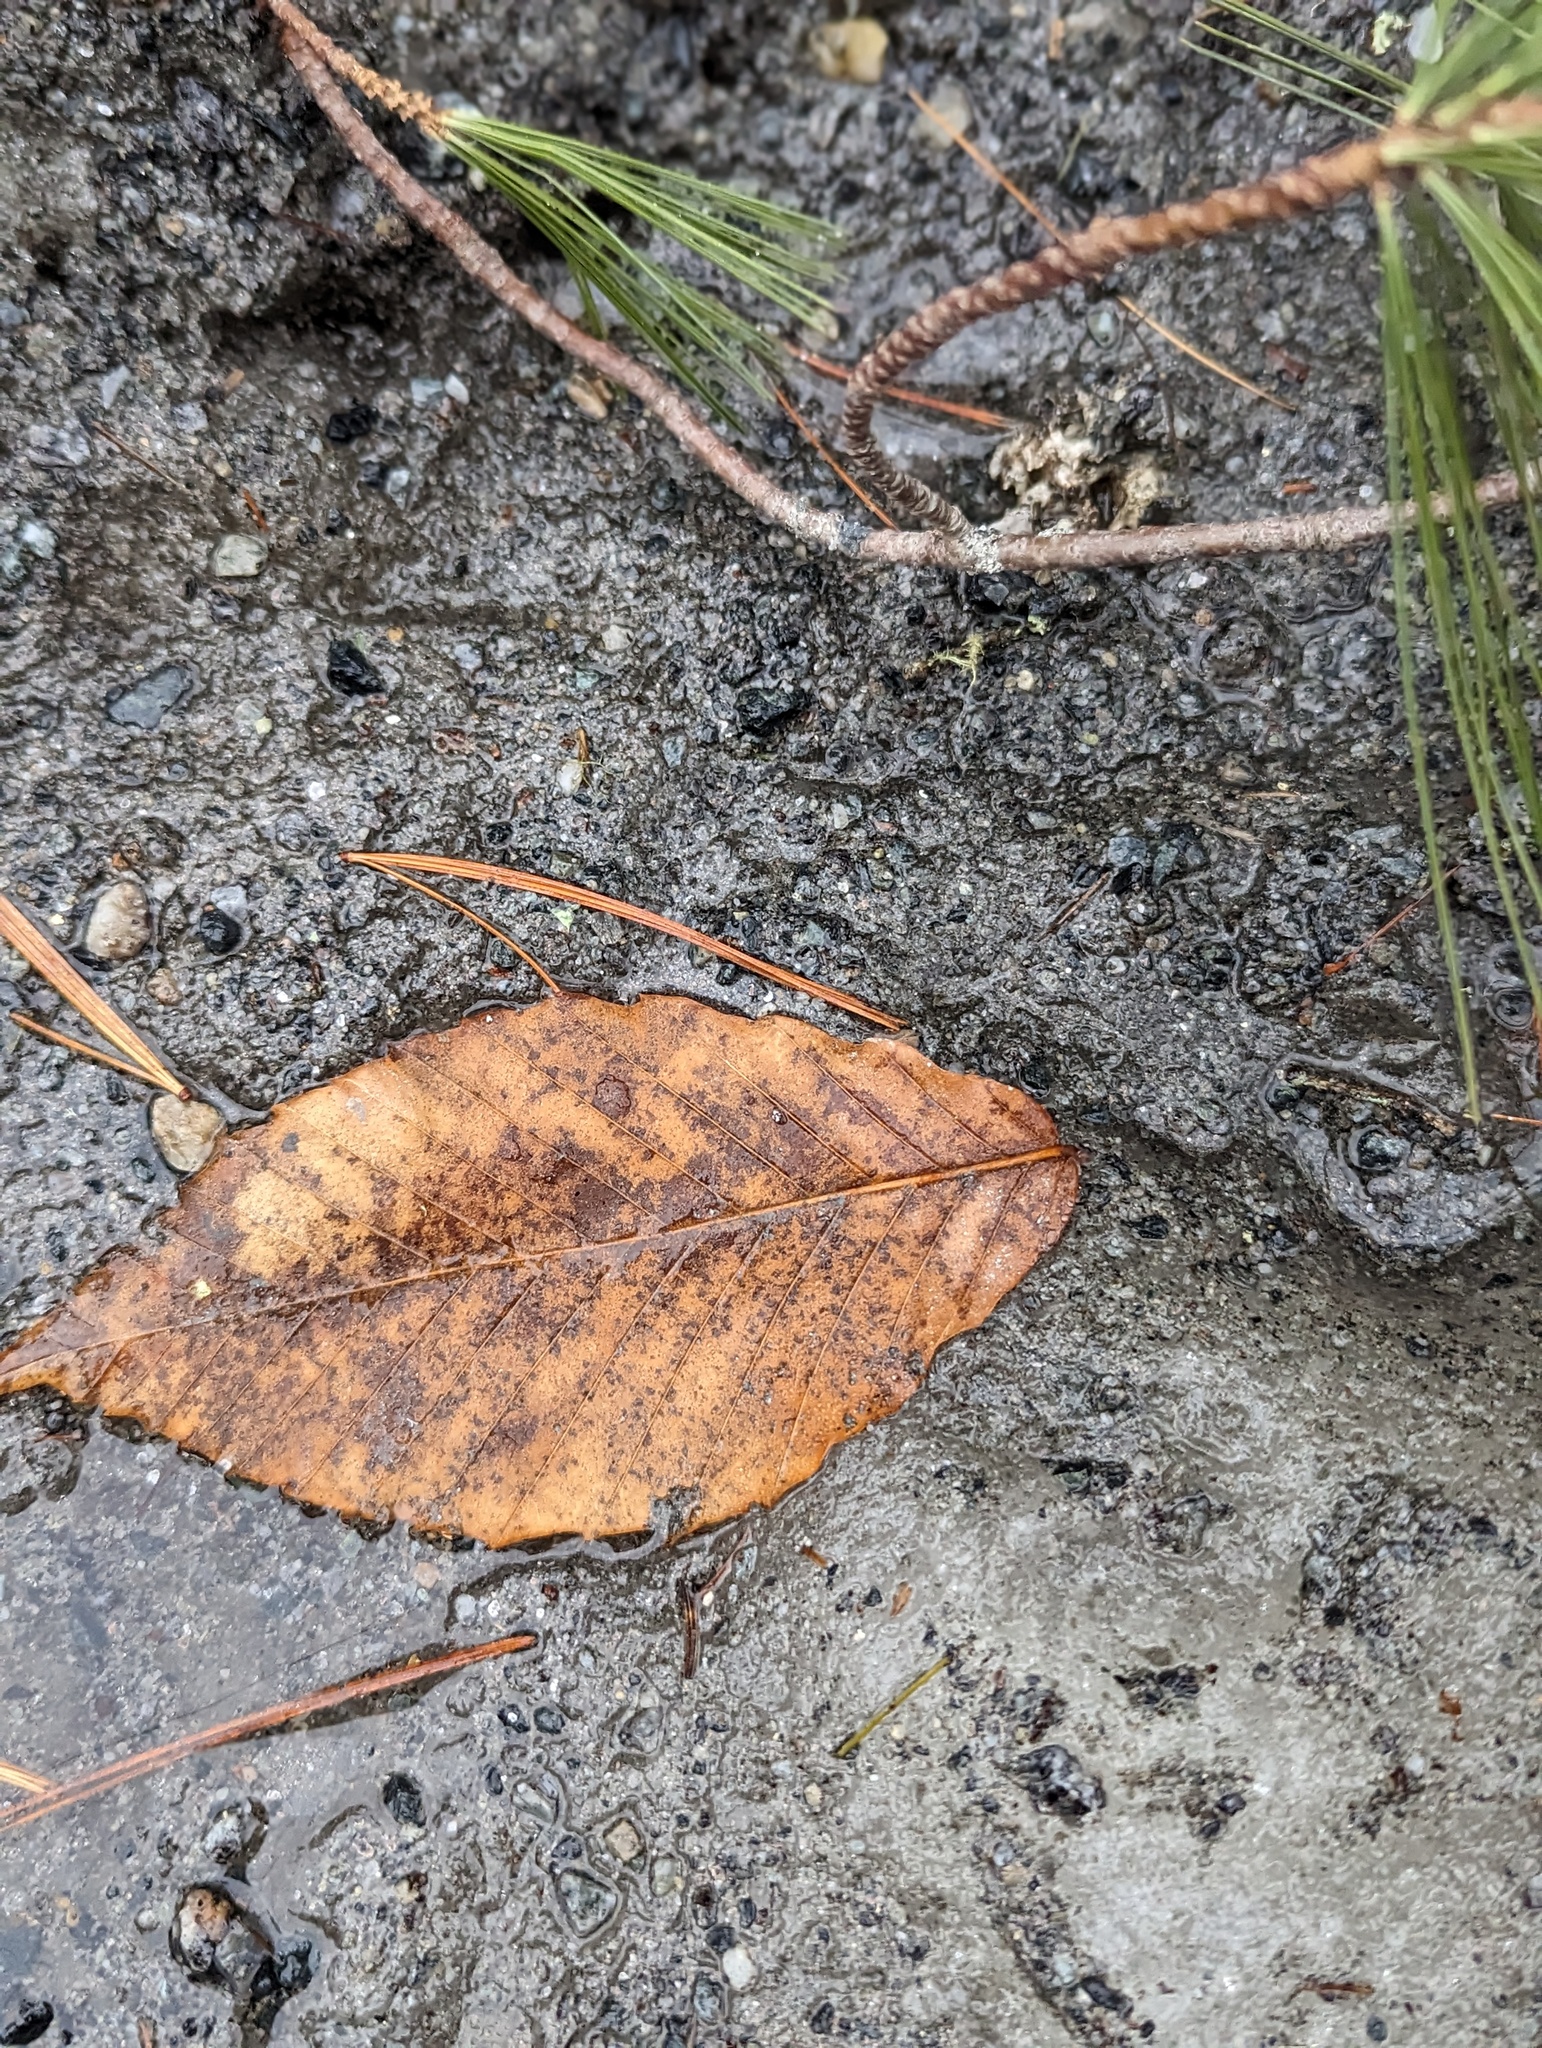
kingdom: Plantae
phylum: Tracheophyta
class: Magnoliopsida
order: Fagales
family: Fagaceae
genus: Fagus
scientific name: Fagus grandifolia
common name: American beech
